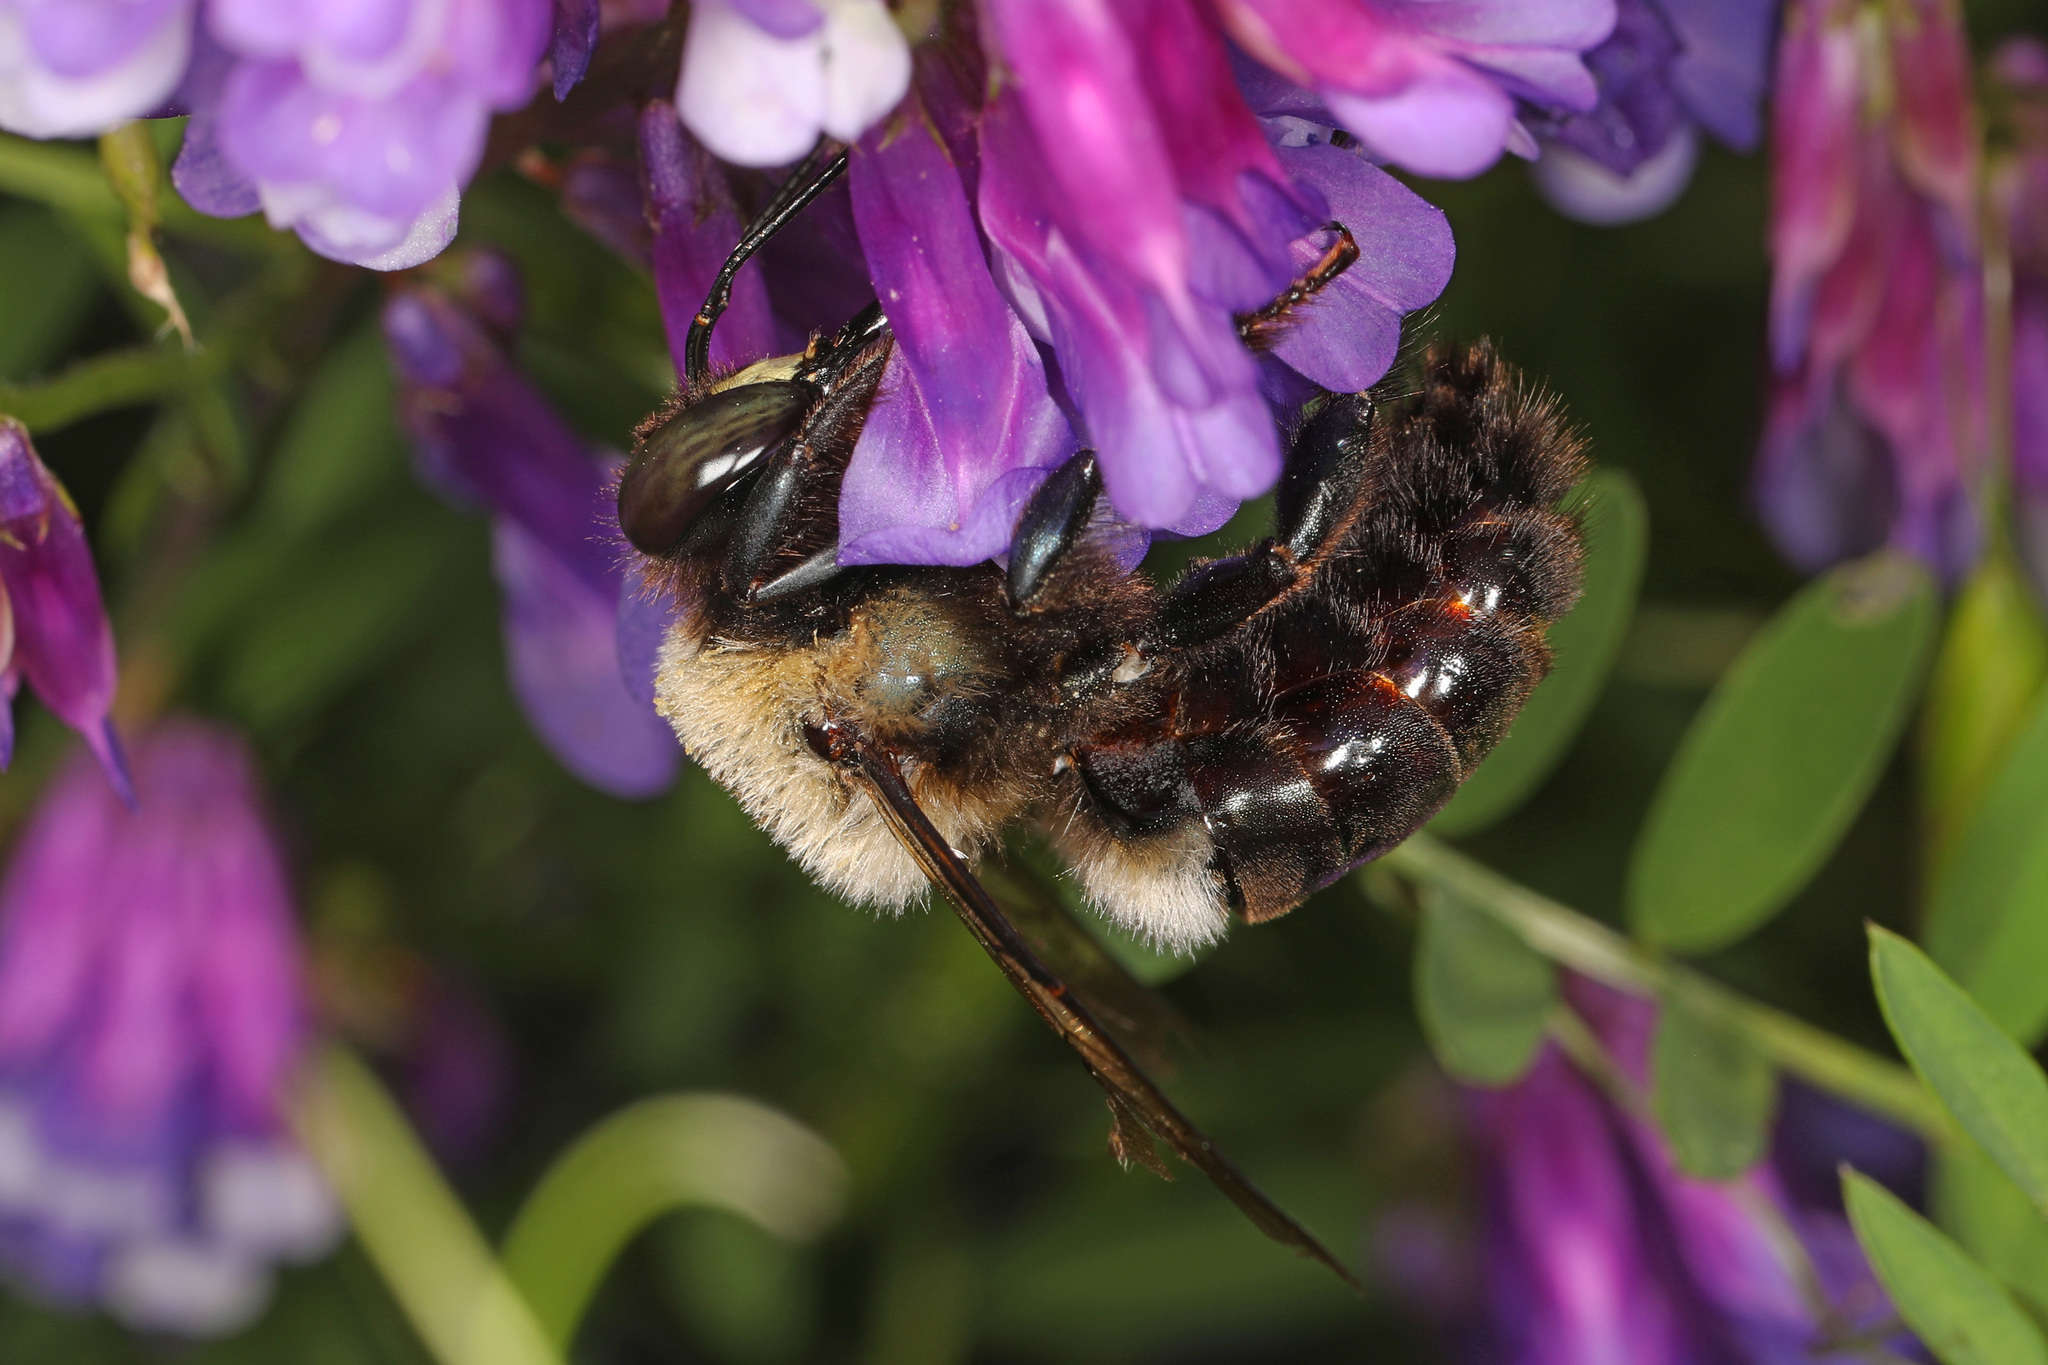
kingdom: Animalia
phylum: Arthropoda
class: Insecta
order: Hymenoptera
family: Apidae
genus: Xylocopa
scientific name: Xylocopa virginica
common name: Carpenter bee
